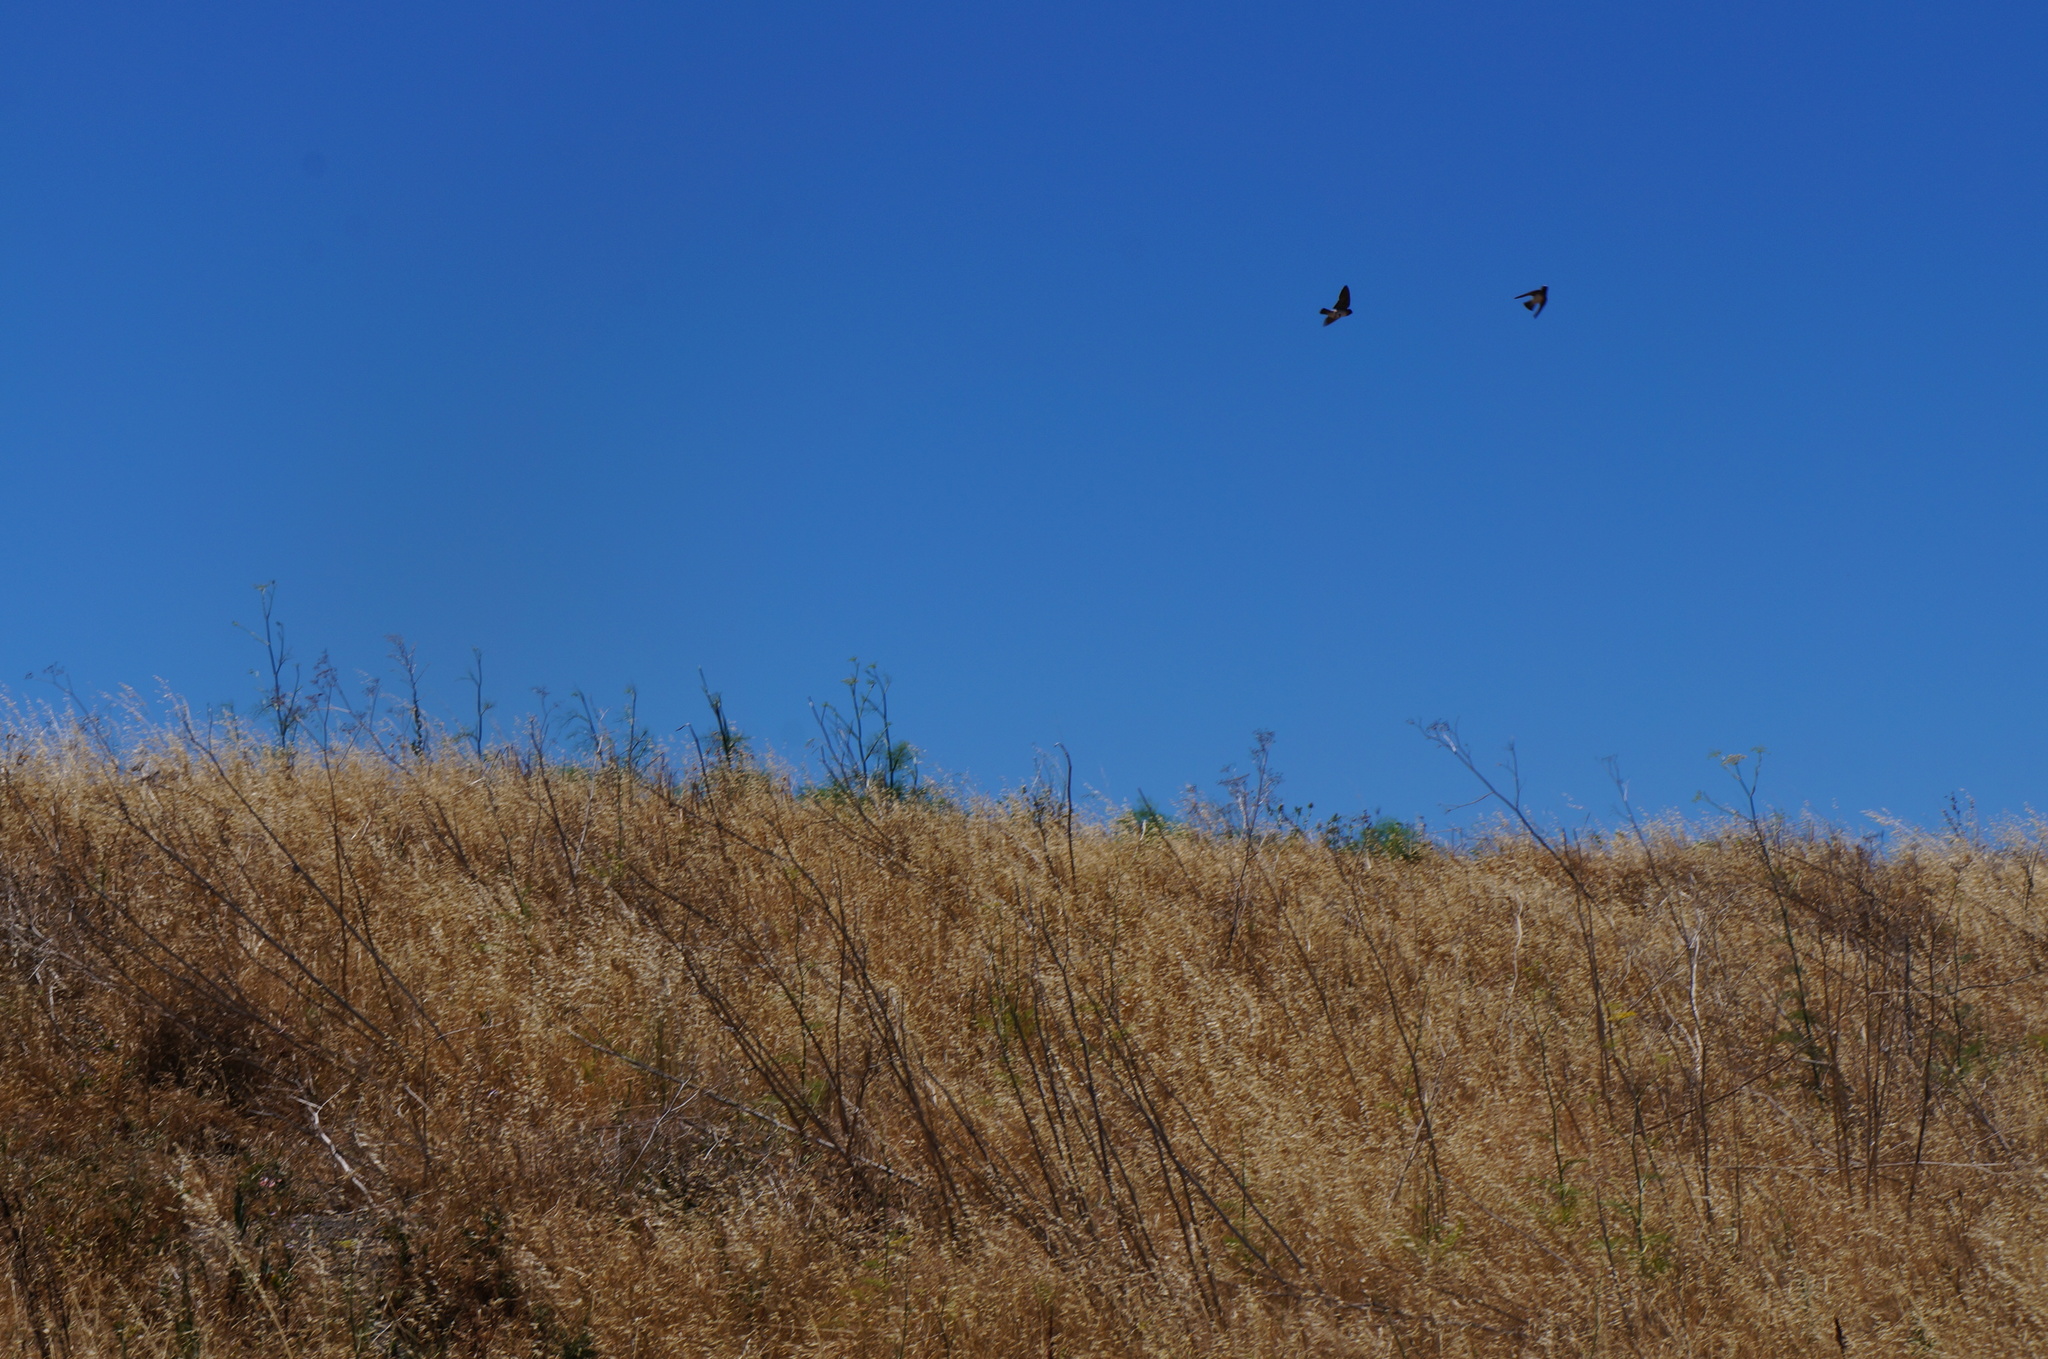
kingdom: Animalia
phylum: Chordata
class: Aves
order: Passeriformes
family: Hirundinidae
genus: Petrochelidon
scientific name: Petrochelidon pyrrhonota
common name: American cliff swallow
